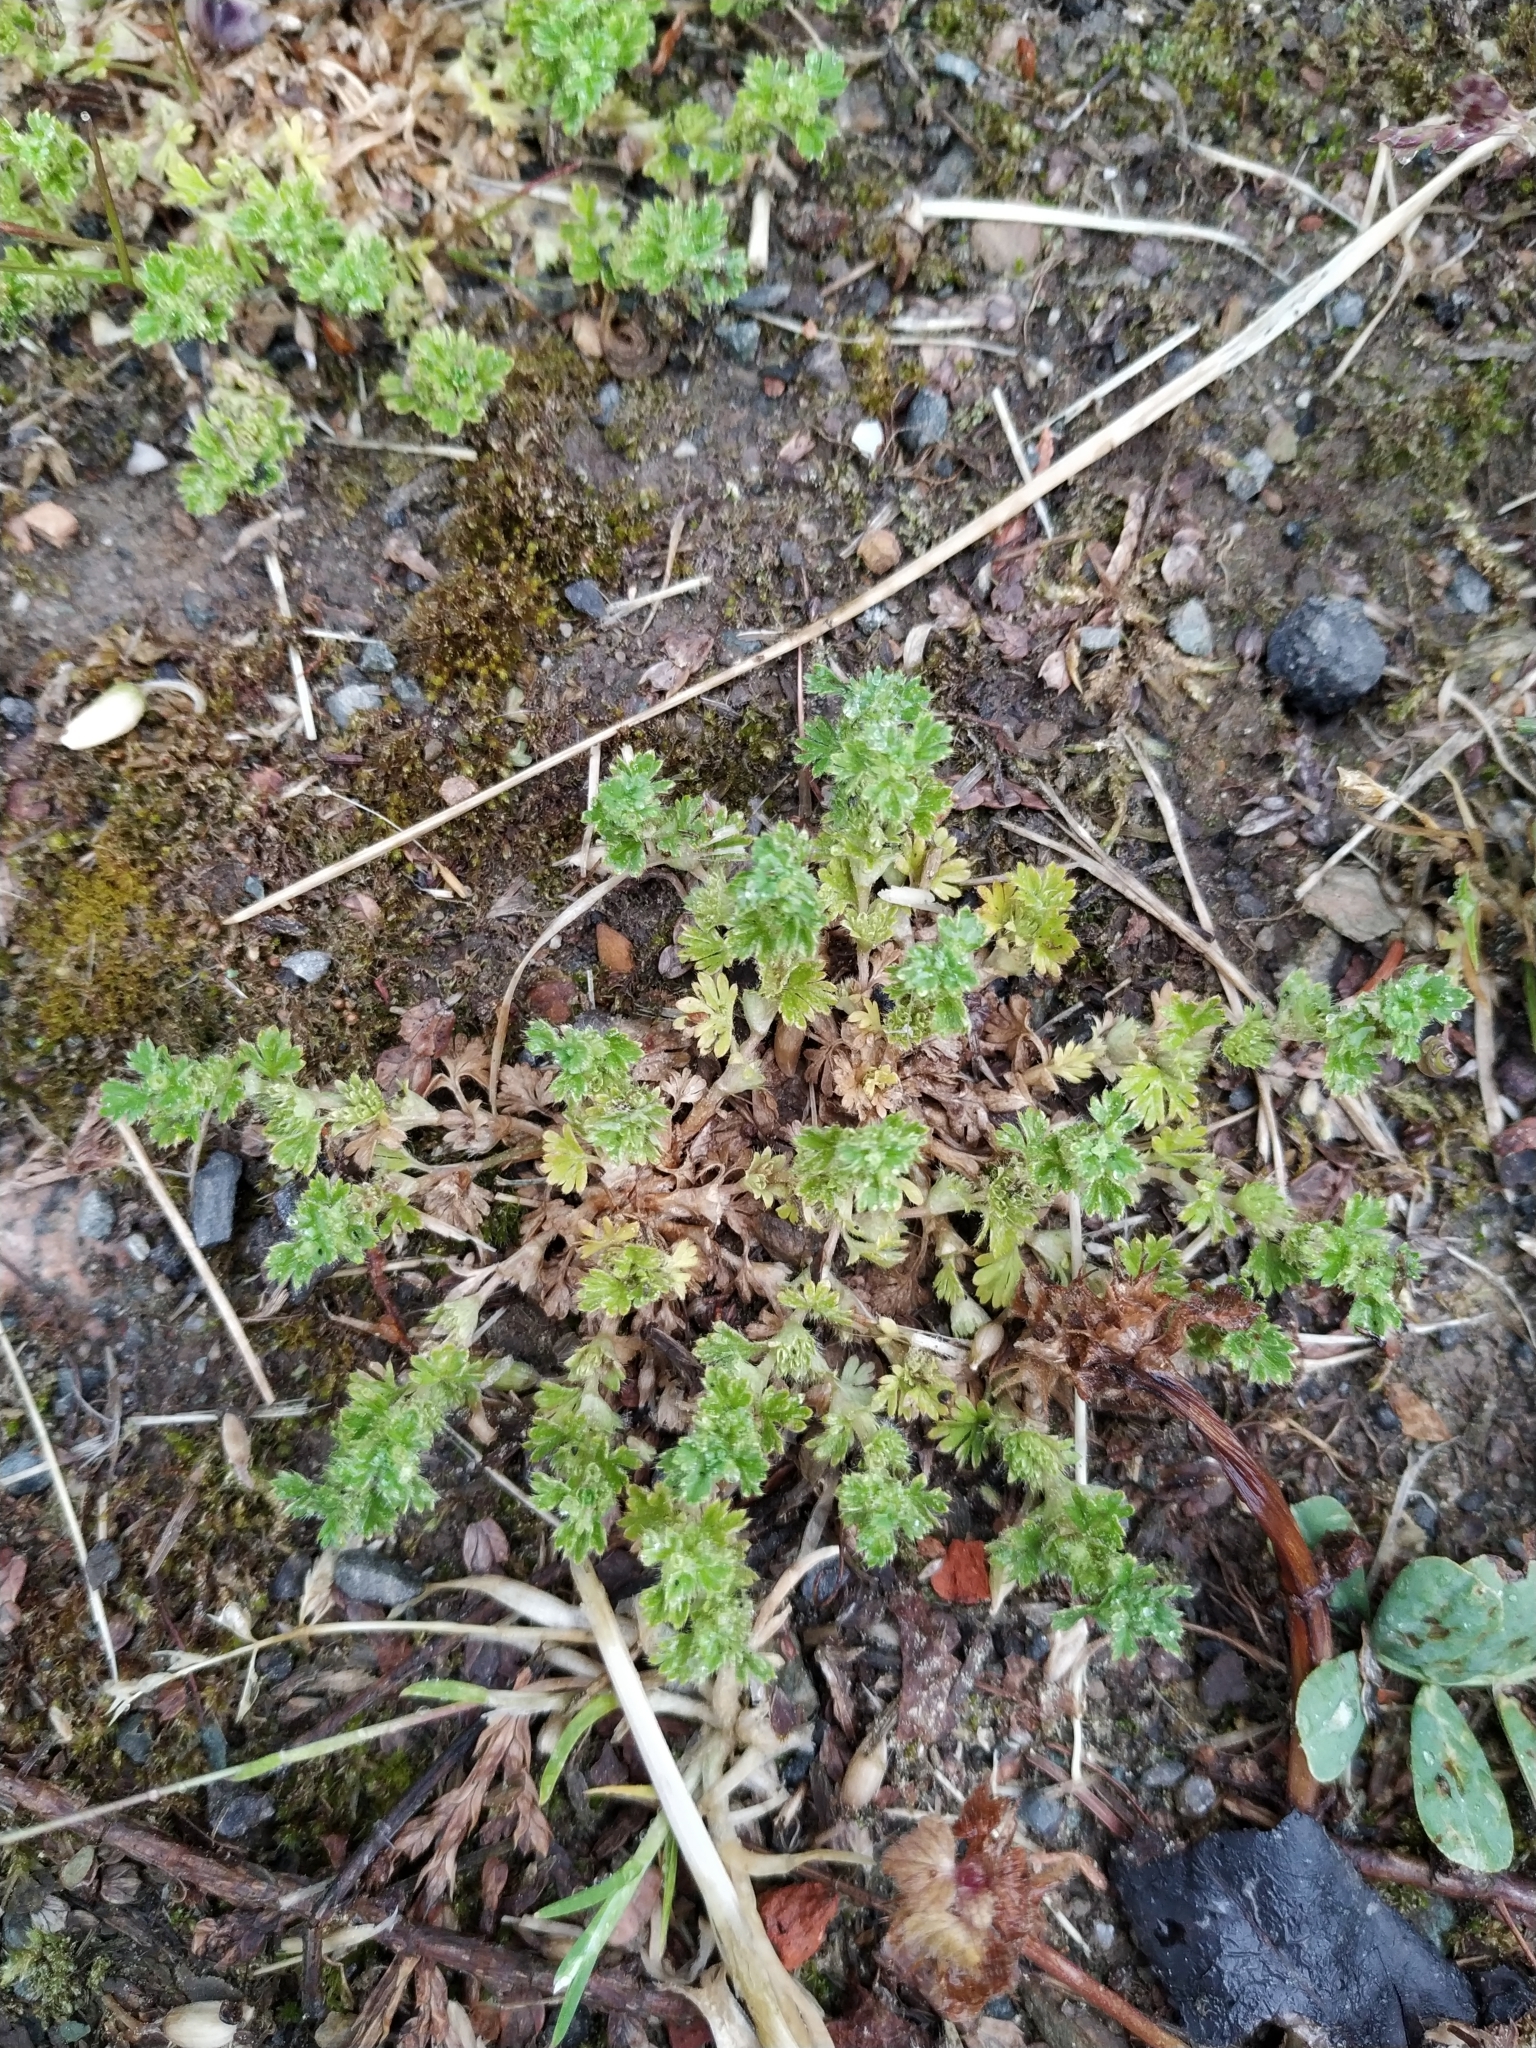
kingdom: Plantae
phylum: Tracheophyta
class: Magnoliopsida
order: Rosales
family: Rosaceae
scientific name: Rosaceae
